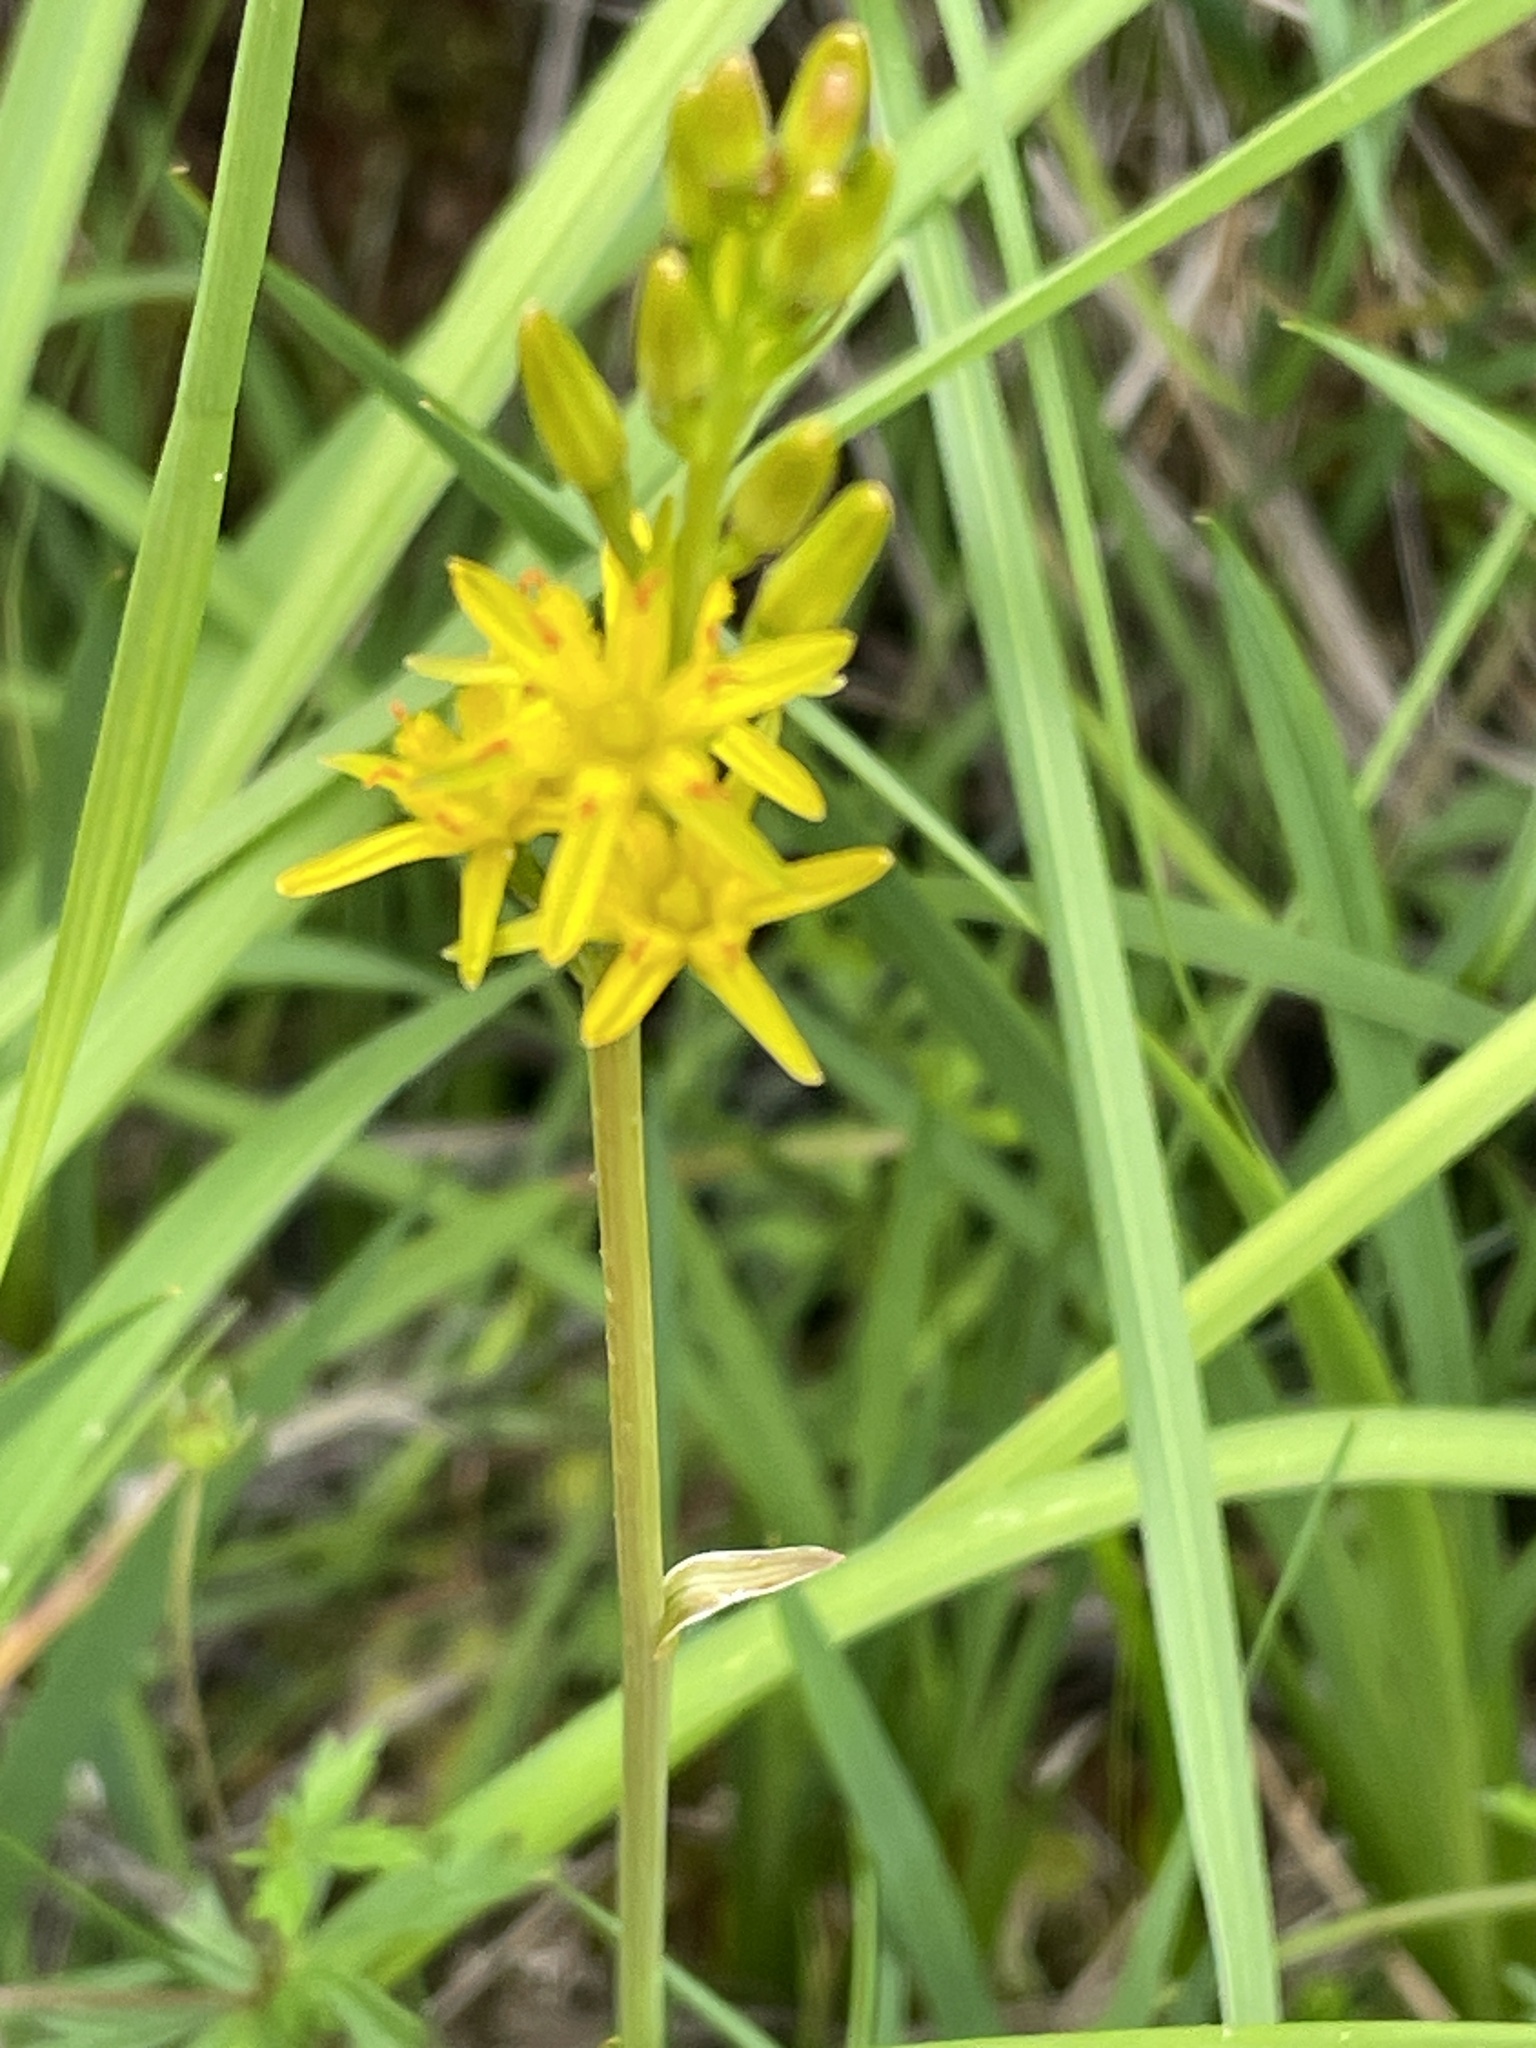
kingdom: Plantae
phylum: Tracheophyta
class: Liliopsida
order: Dioscoreales
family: Nartheciaceae
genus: Narthecium
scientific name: Narthecium ossifragum
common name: Bog asphodel
